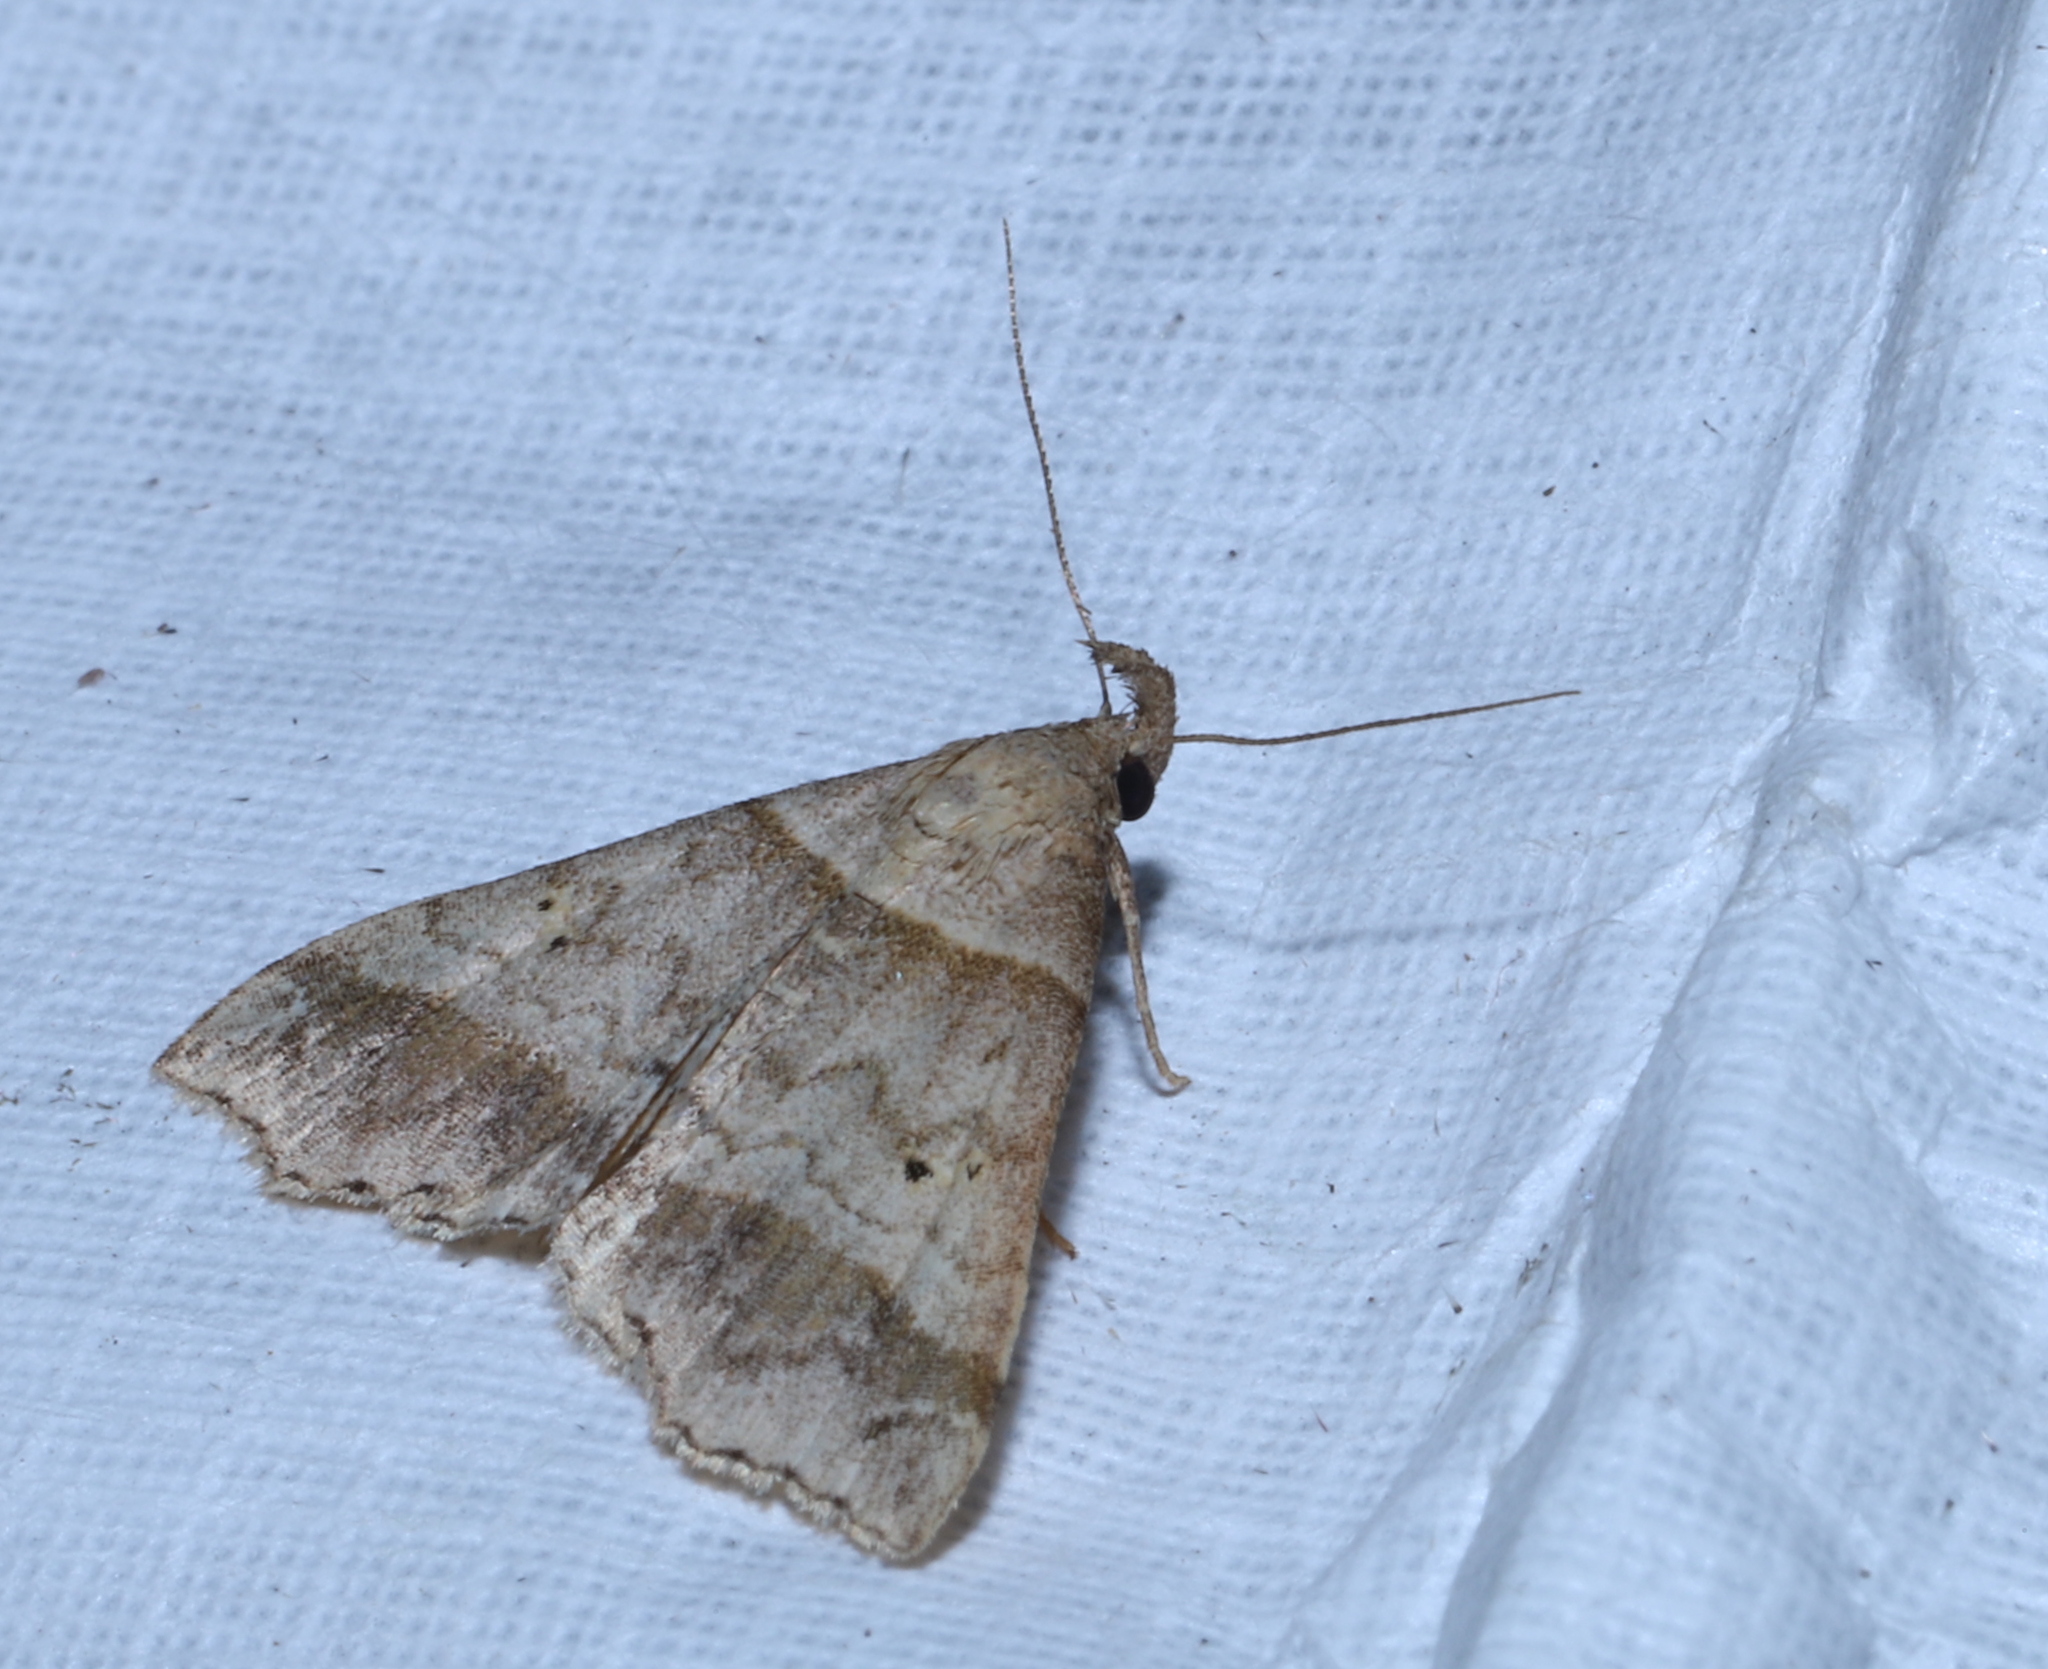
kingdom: Animalia
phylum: Arthropoda
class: Insecta
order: Lepidoptera
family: Erebidae
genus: Phaeolita
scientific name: Phaeolita pyramusalis
